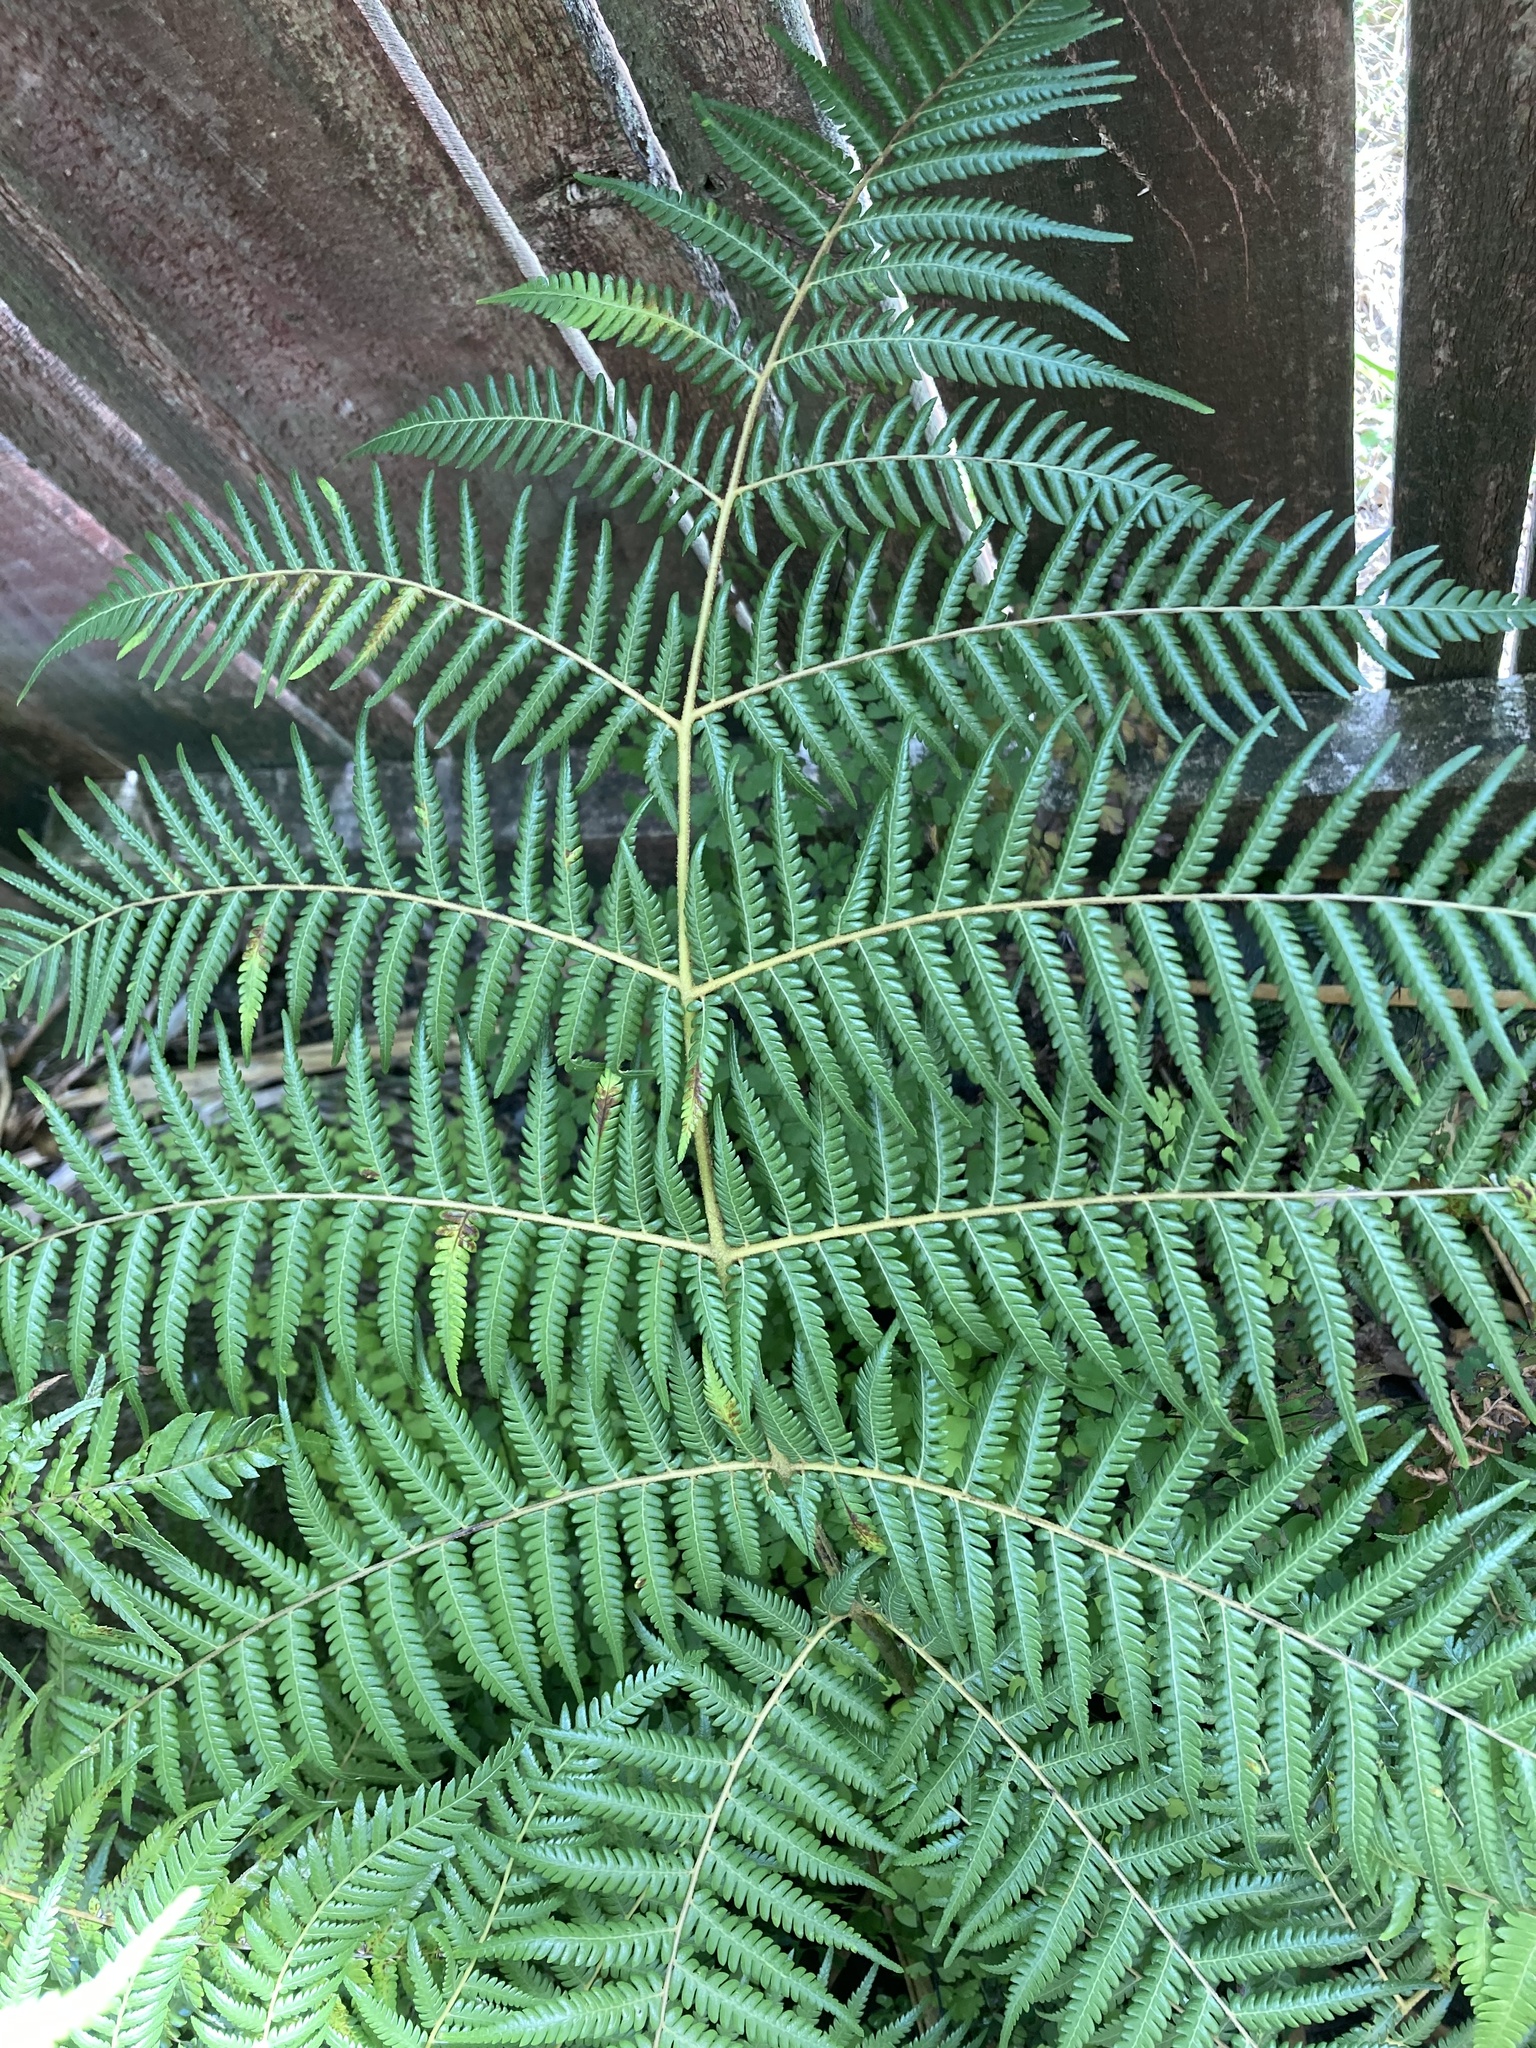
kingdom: Plantae
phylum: Tracheophyta
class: Polypodiopsida
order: Cyatheales
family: Cyatheaceae
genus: Alsophila
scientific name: Alsophila dealbata
